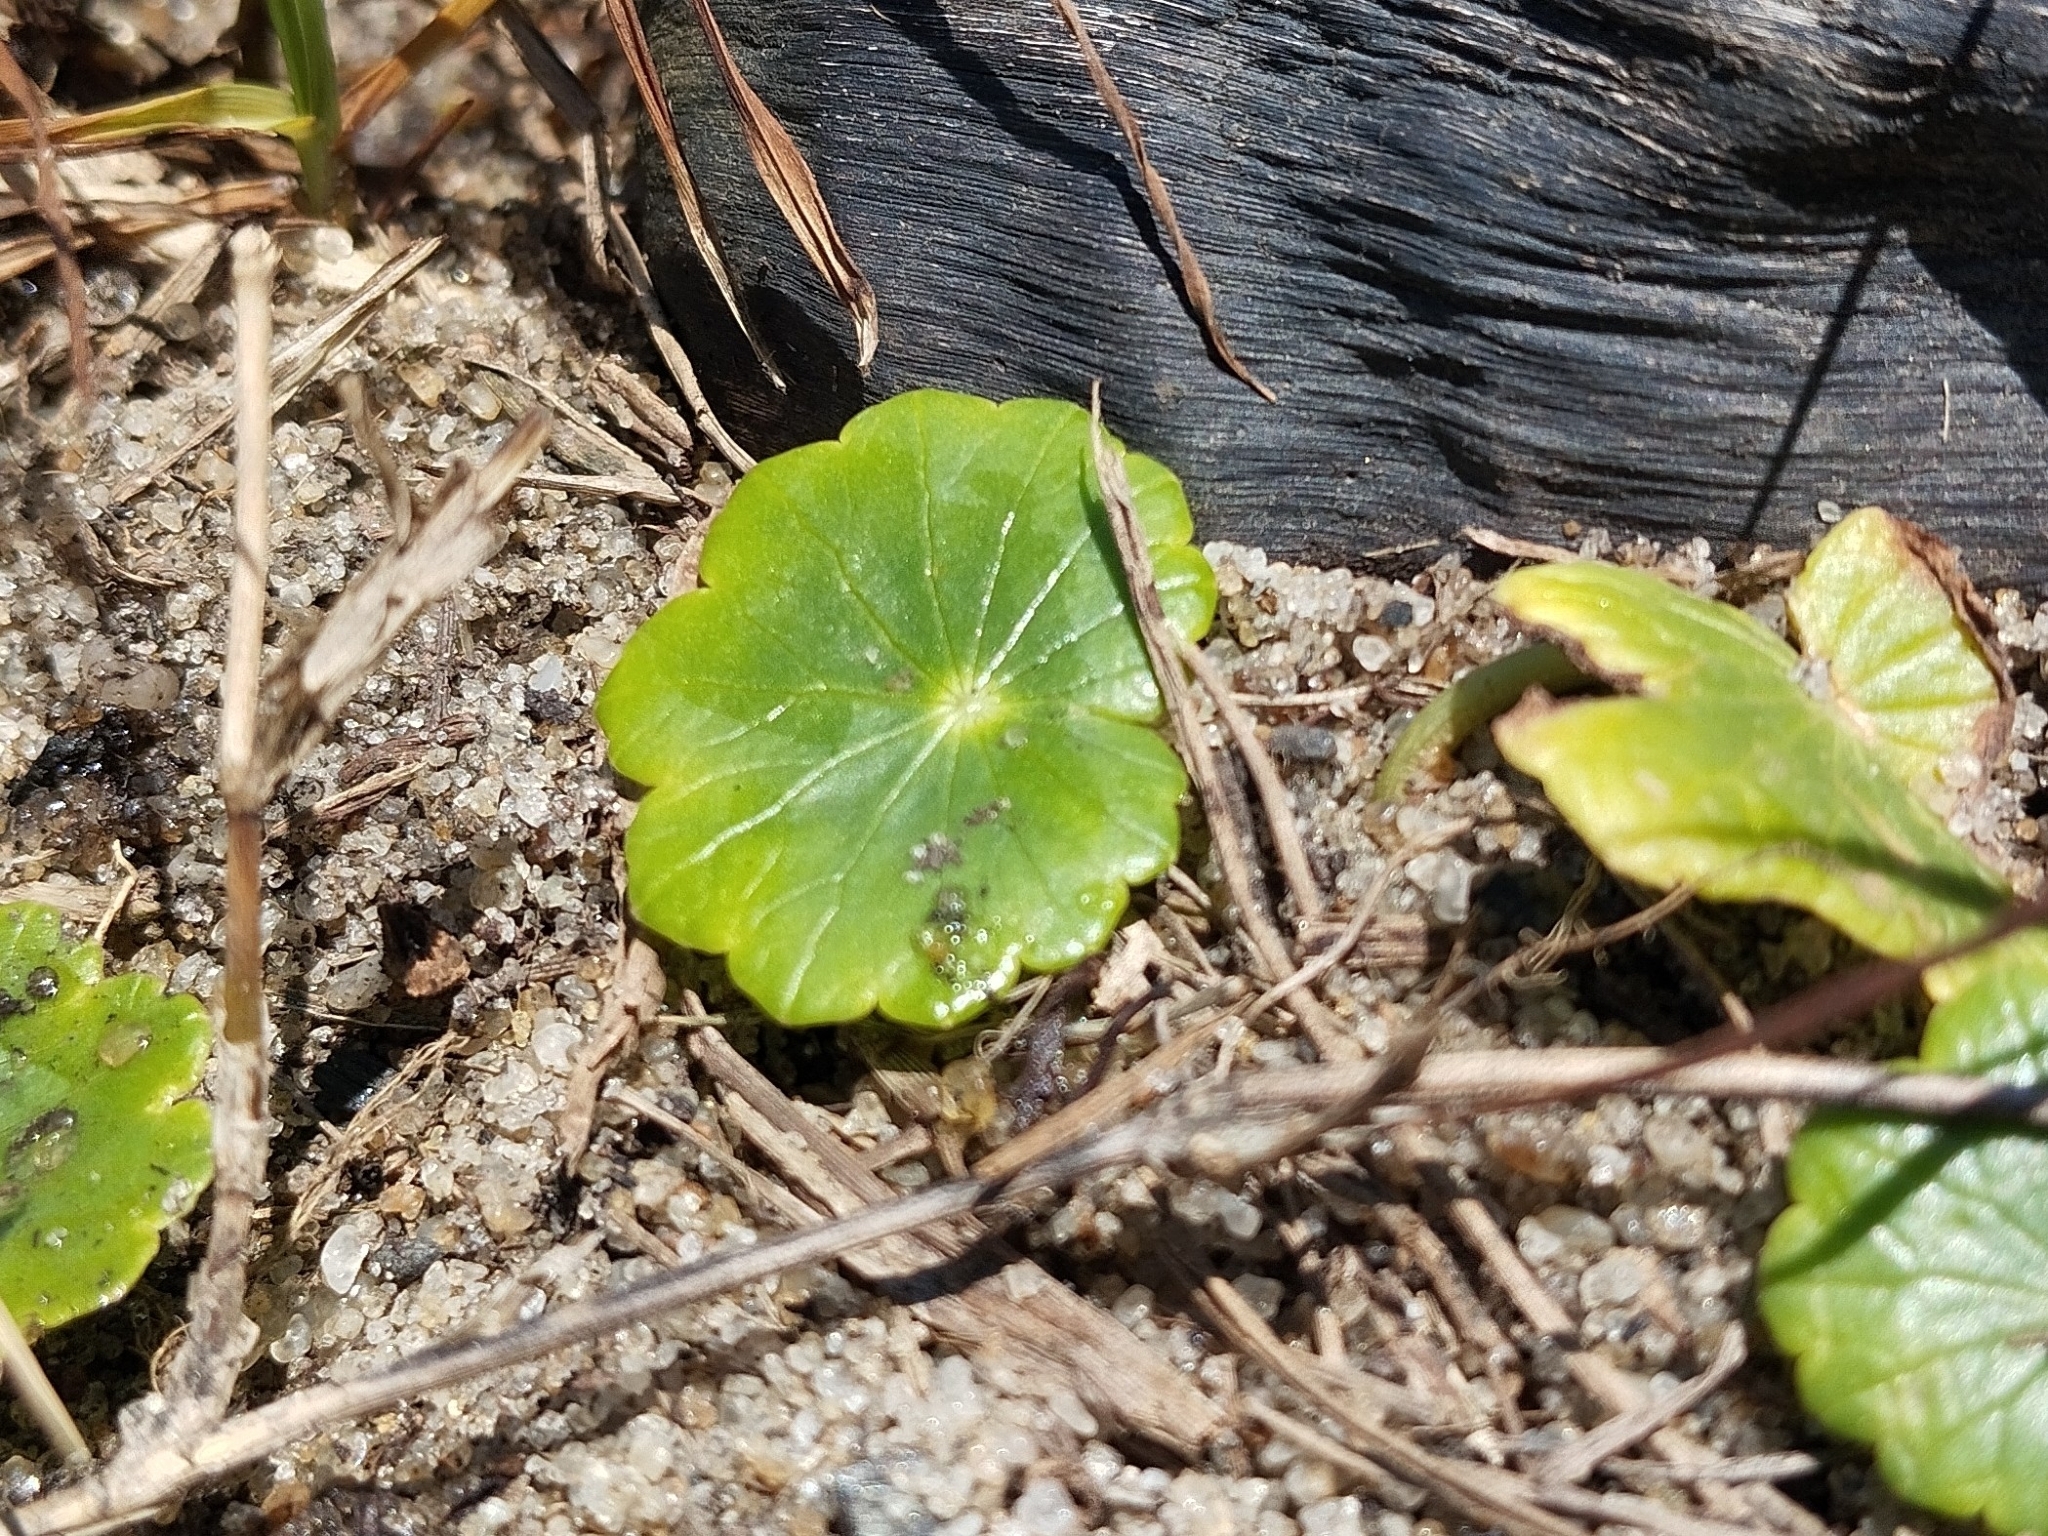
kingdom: Plantae
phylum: Tracheophyta
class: Magnoliopsida
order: Apiales
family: Araliaceae
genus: Hydrocotyle
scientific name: Hydrocotyle bonariensis
